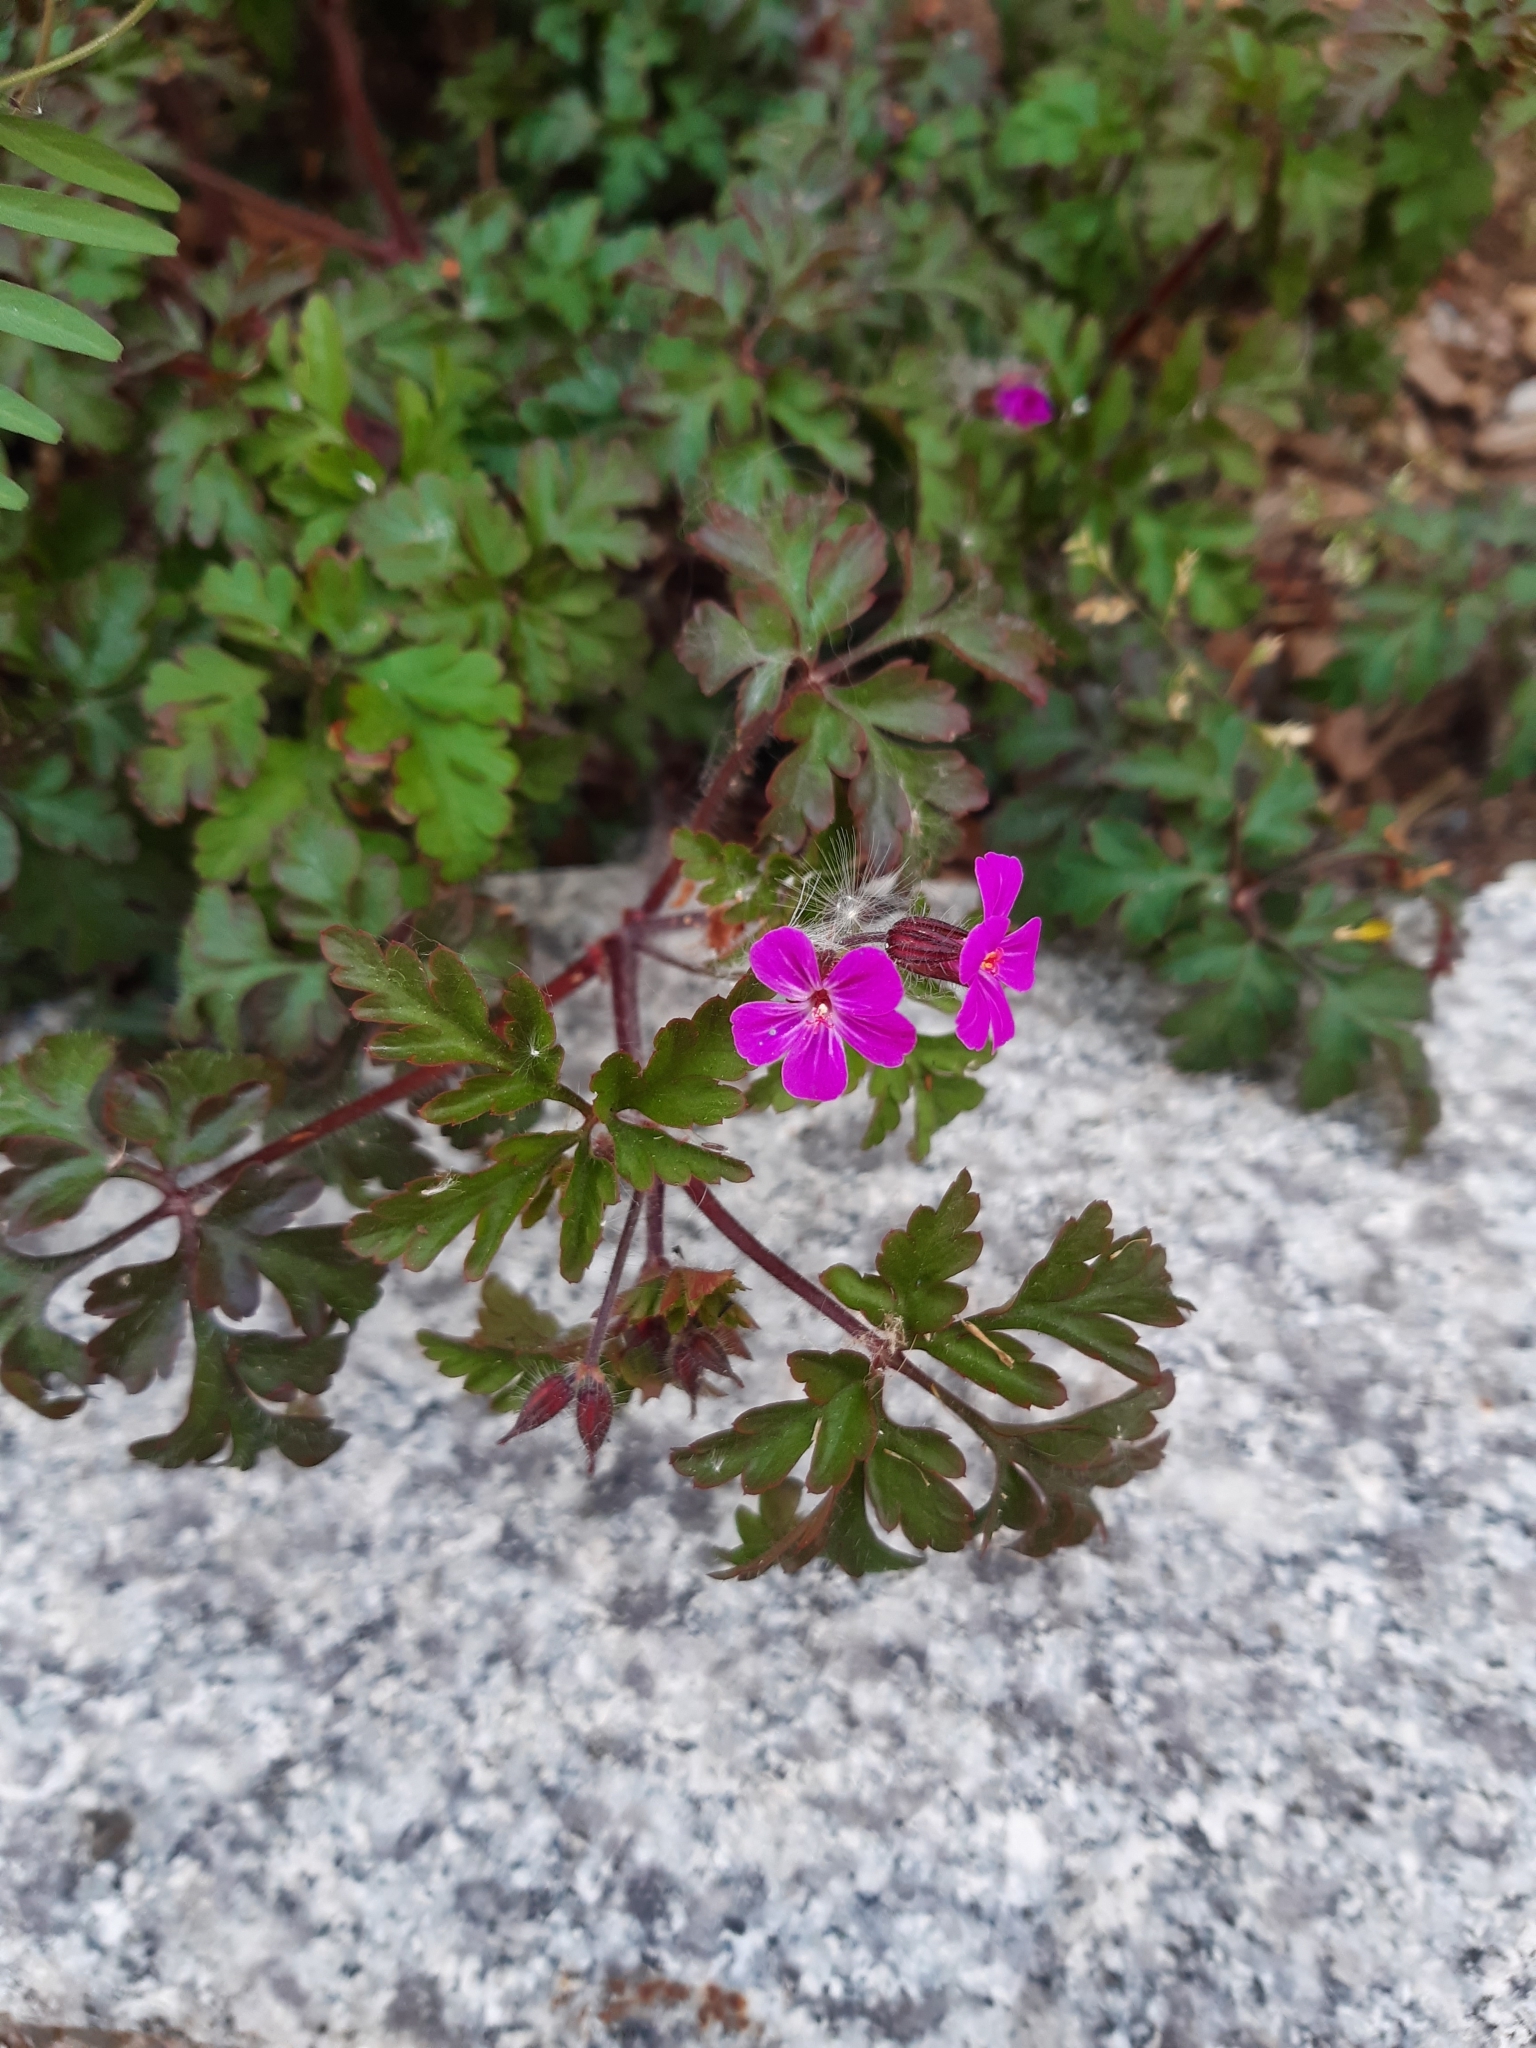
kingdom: Plantae
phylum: Tracheophyta
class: Magnoliopsida
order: Geraniales
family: Geraniaceae
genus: Geranium
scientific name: Geranium robertianum
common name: Herb-robert
